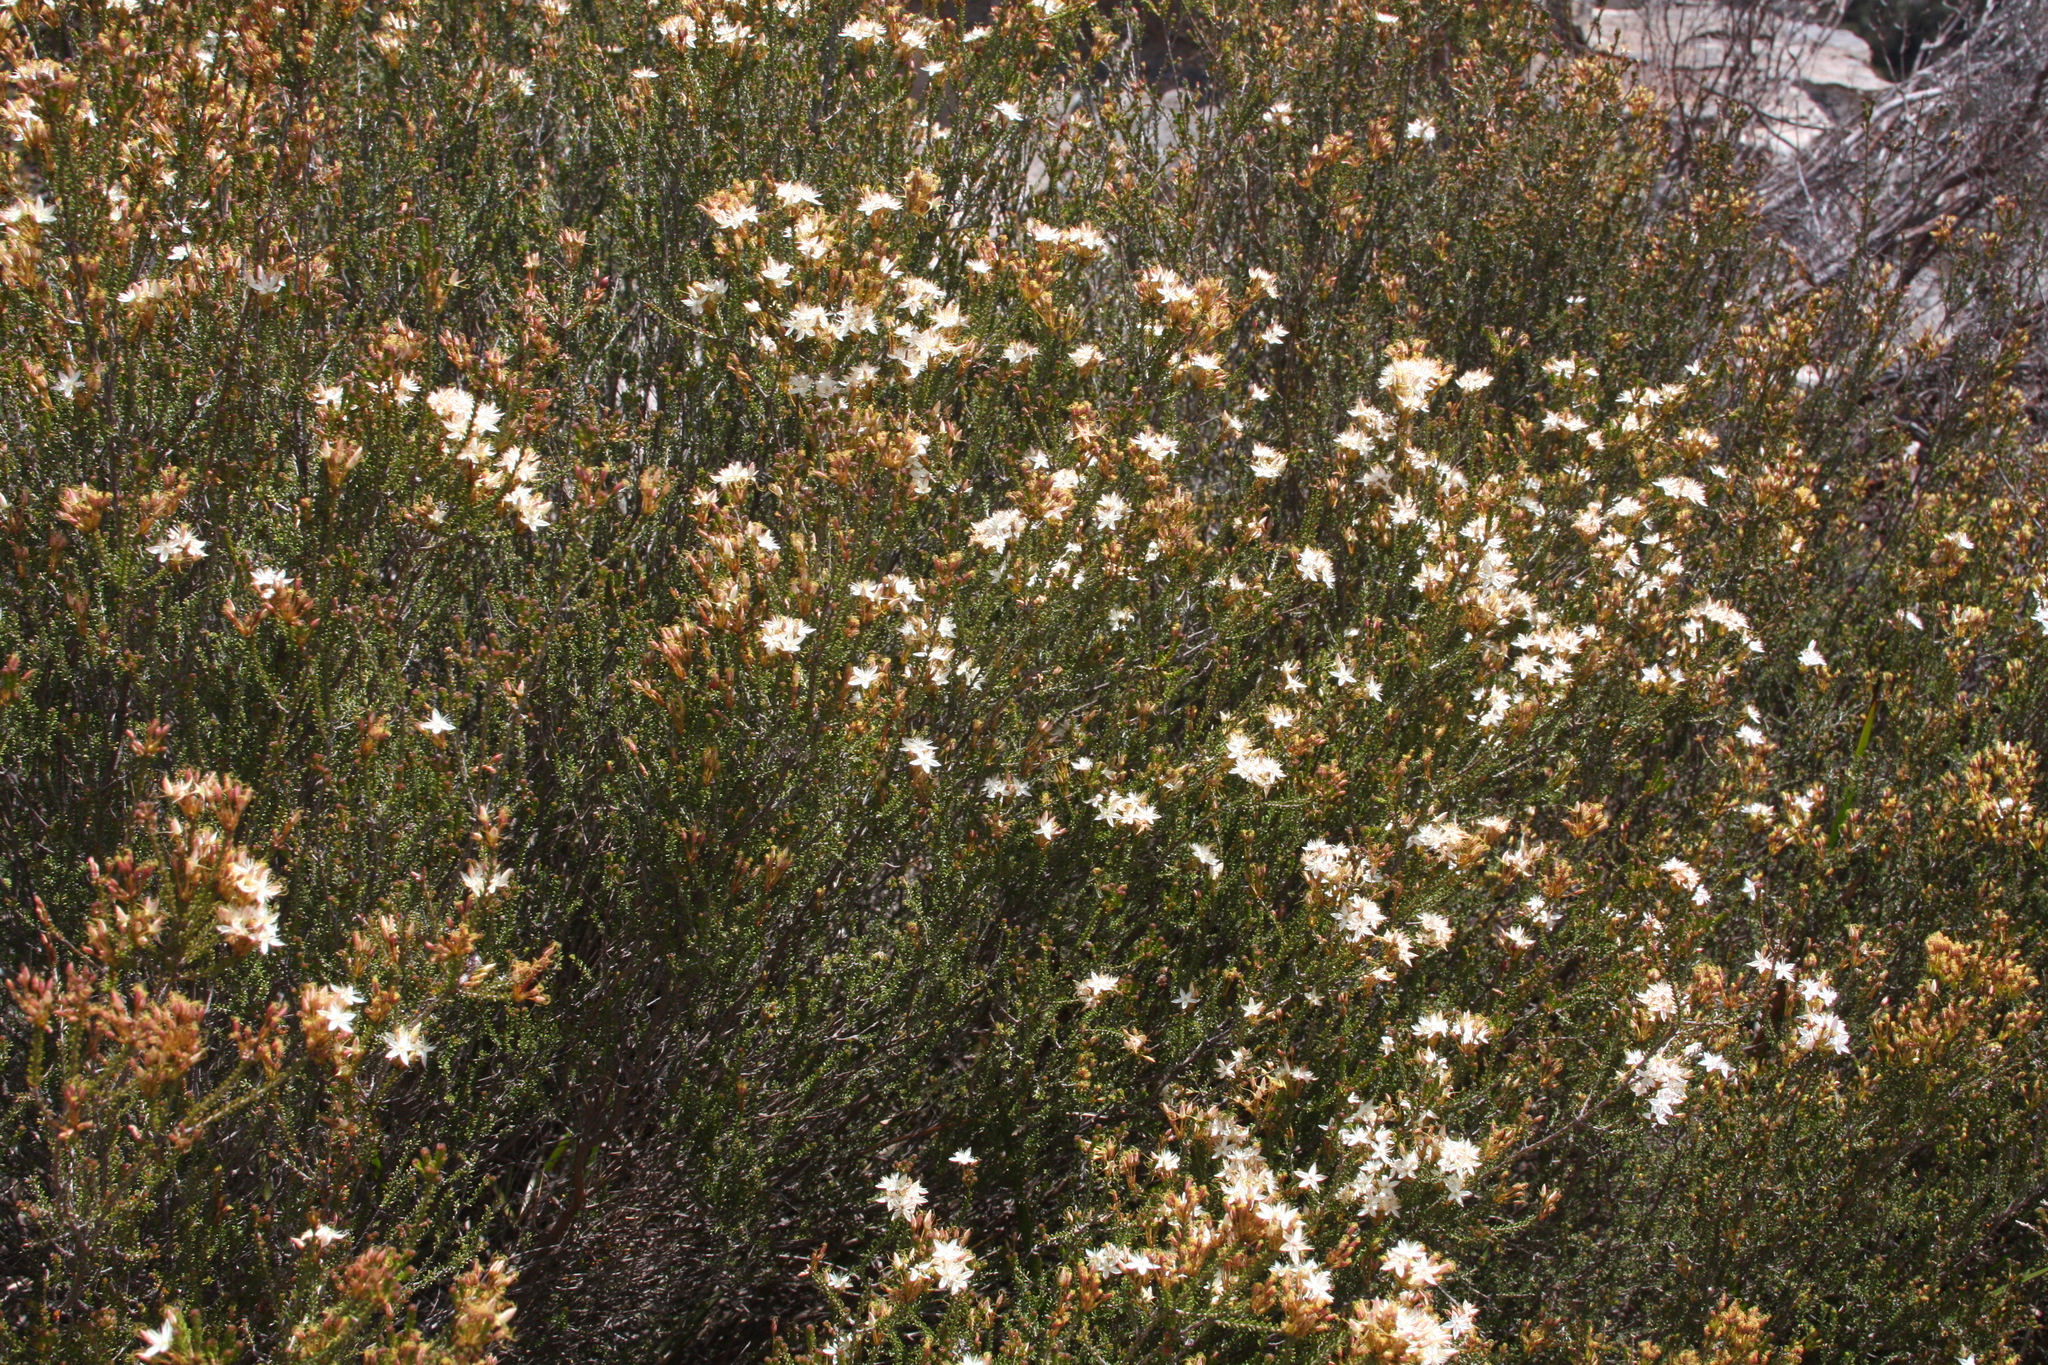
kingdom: Plantae
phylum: Tracheophyta
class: Magnoliopsida
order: Myrtales
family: Myrtaceae
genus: Calytrix
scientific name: Calytrix tetragona
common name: Common fringe myrtle
